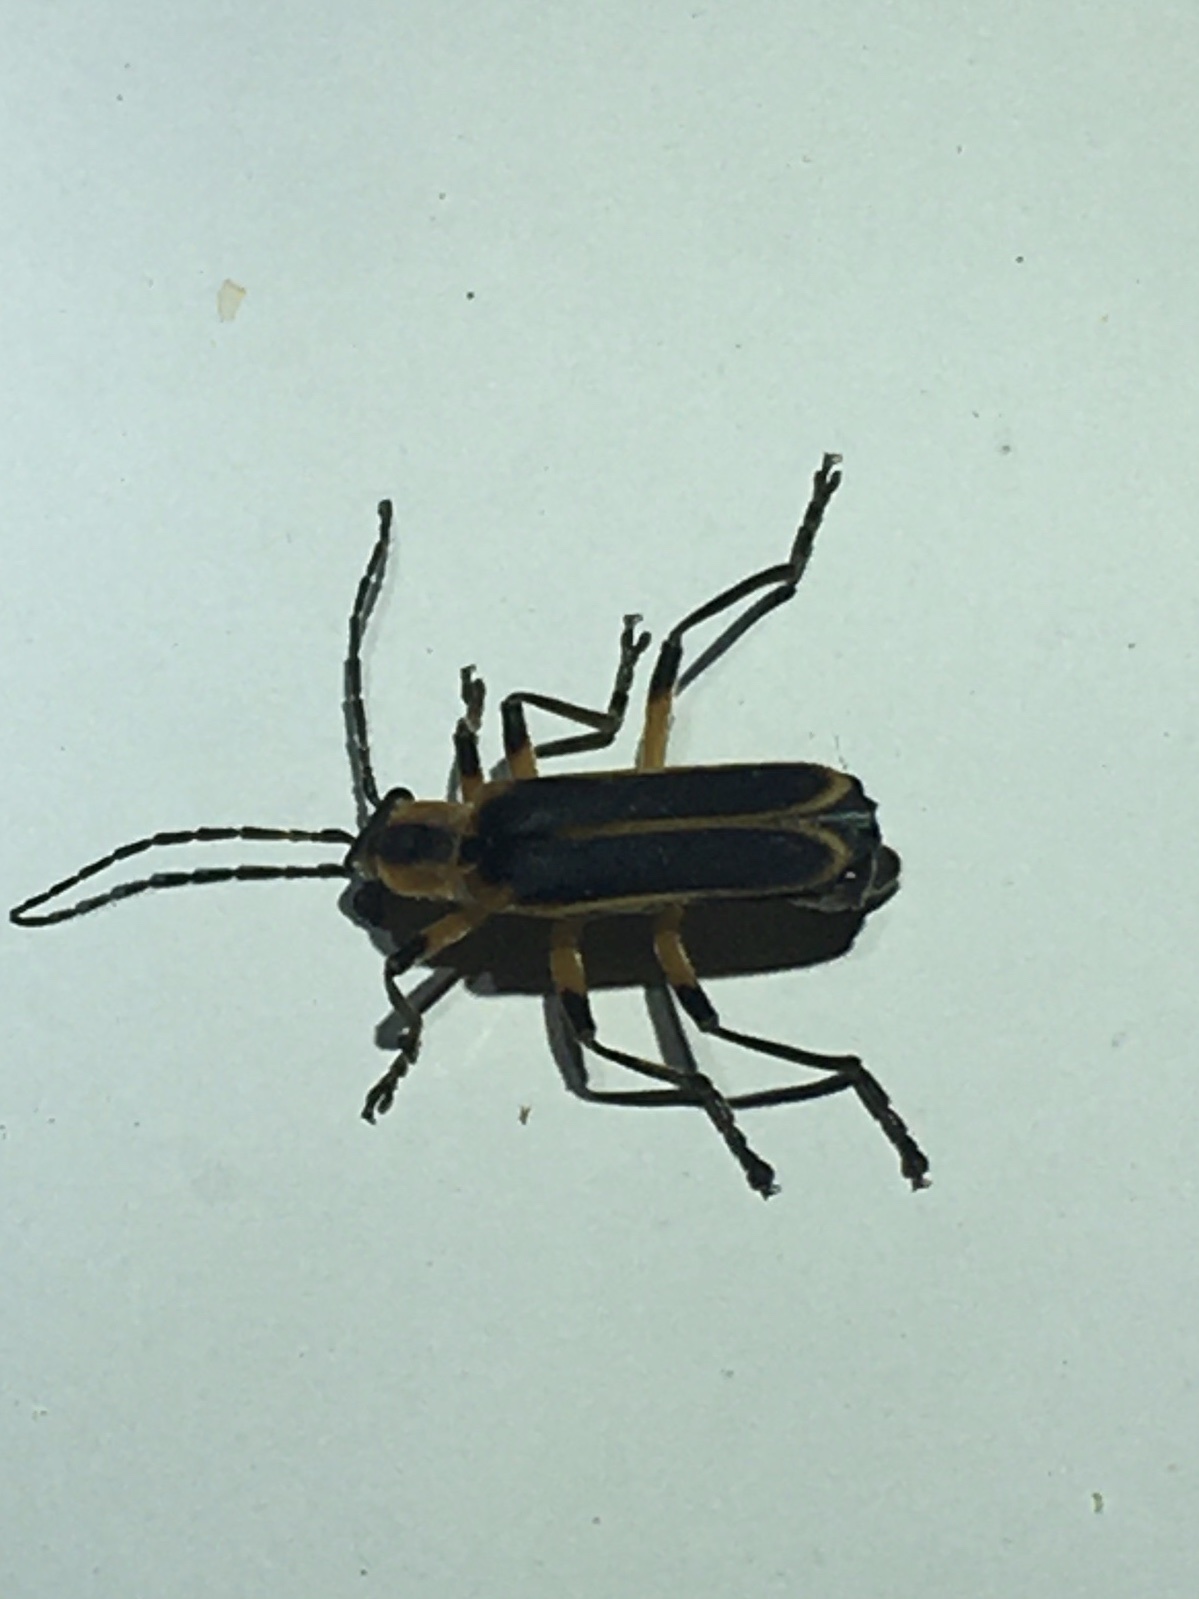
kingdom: Animalia
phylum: Arthropoda
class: Insecta
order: Coleoptera
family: Cantharidae
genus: Chauliognathus
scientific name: Chauliognathus marginatus
